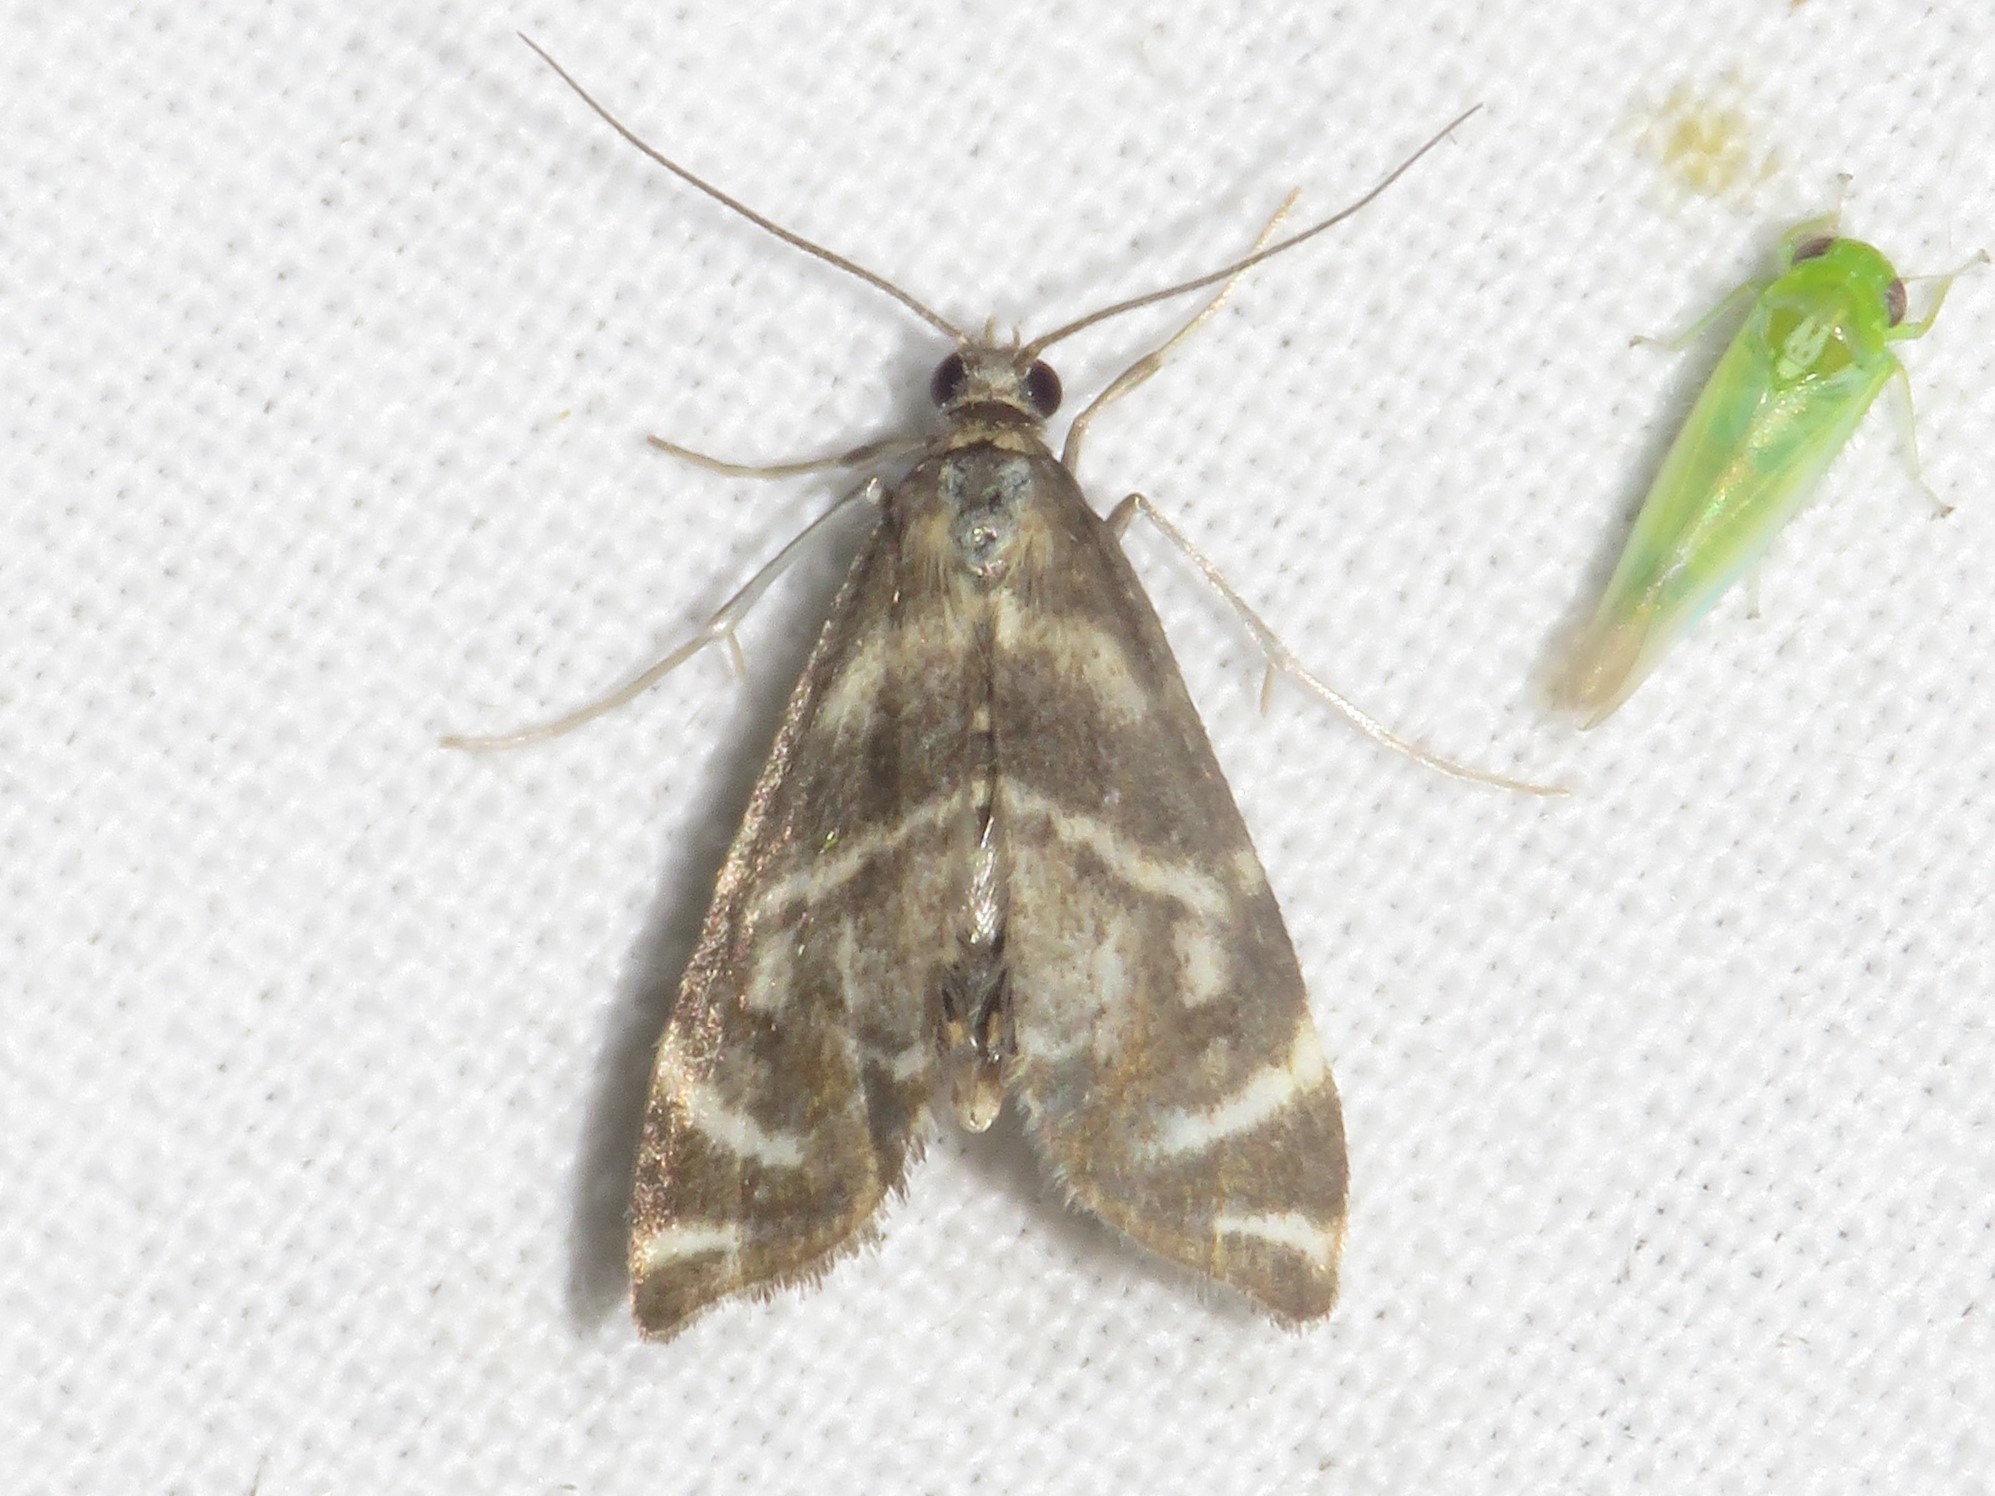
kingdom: Animalia
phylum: Arthropoda
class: Insecta
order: Lepidoptera
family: Crambidae
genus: Petrophila
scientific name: Petrophila canadensis
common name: Canadian petrophila
